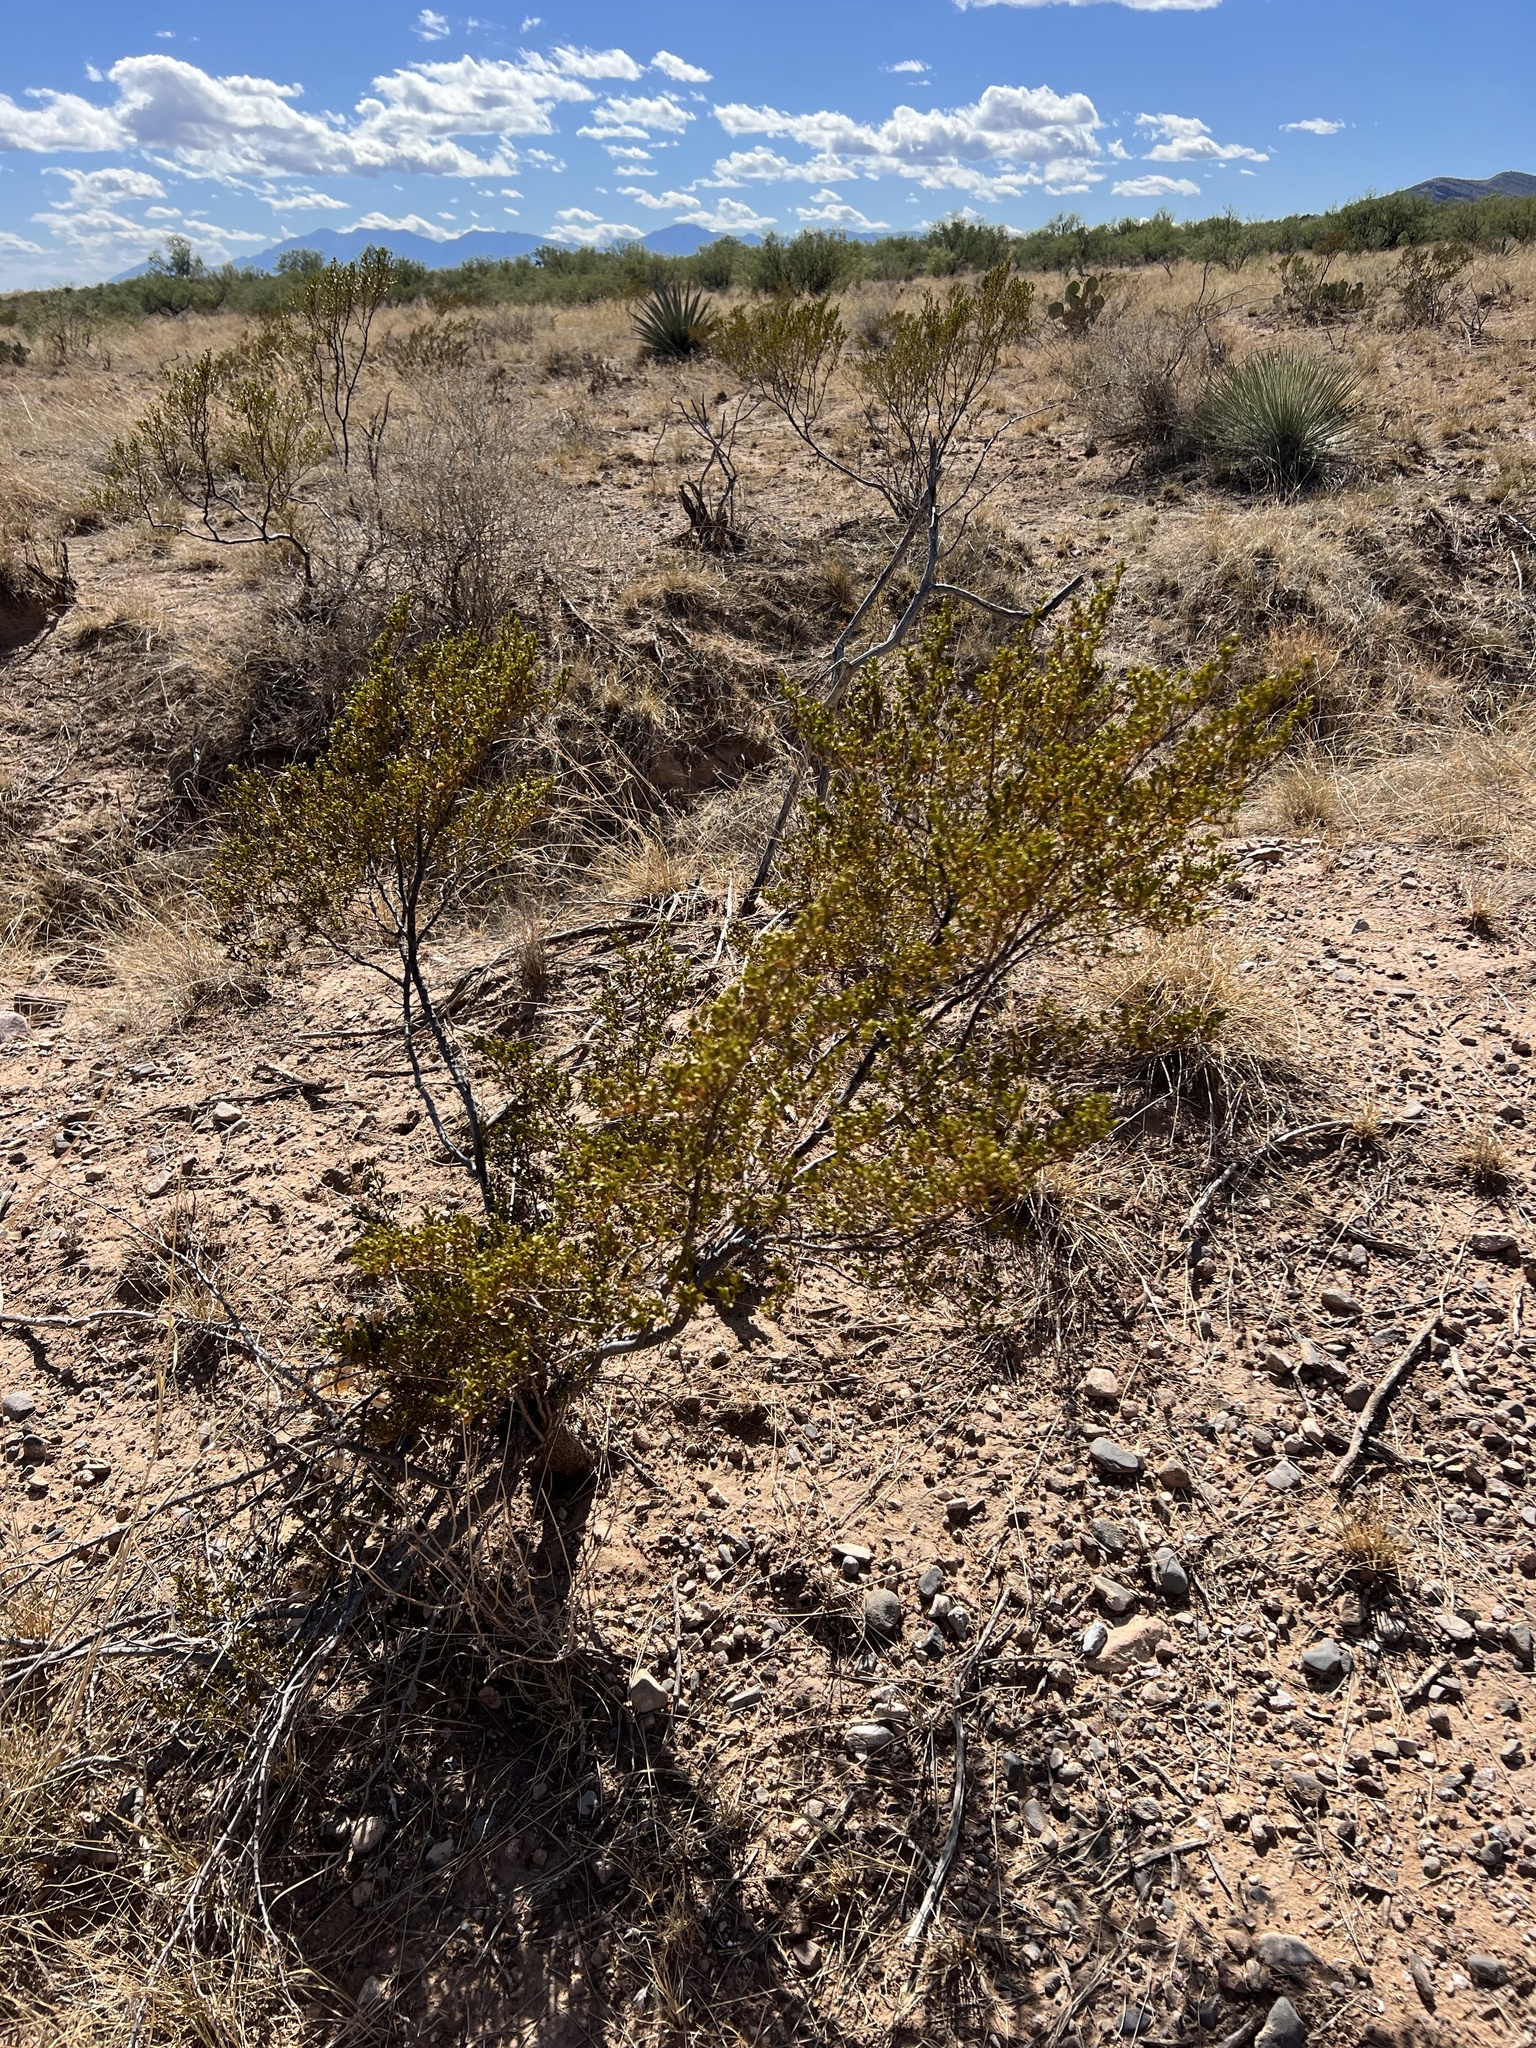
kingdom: Plantae
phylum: Tracheophyta
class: Magnoliopsida
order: Zygophyllales
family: Zygophyllaceae
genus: Larrea
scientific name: Larrea tridentata
